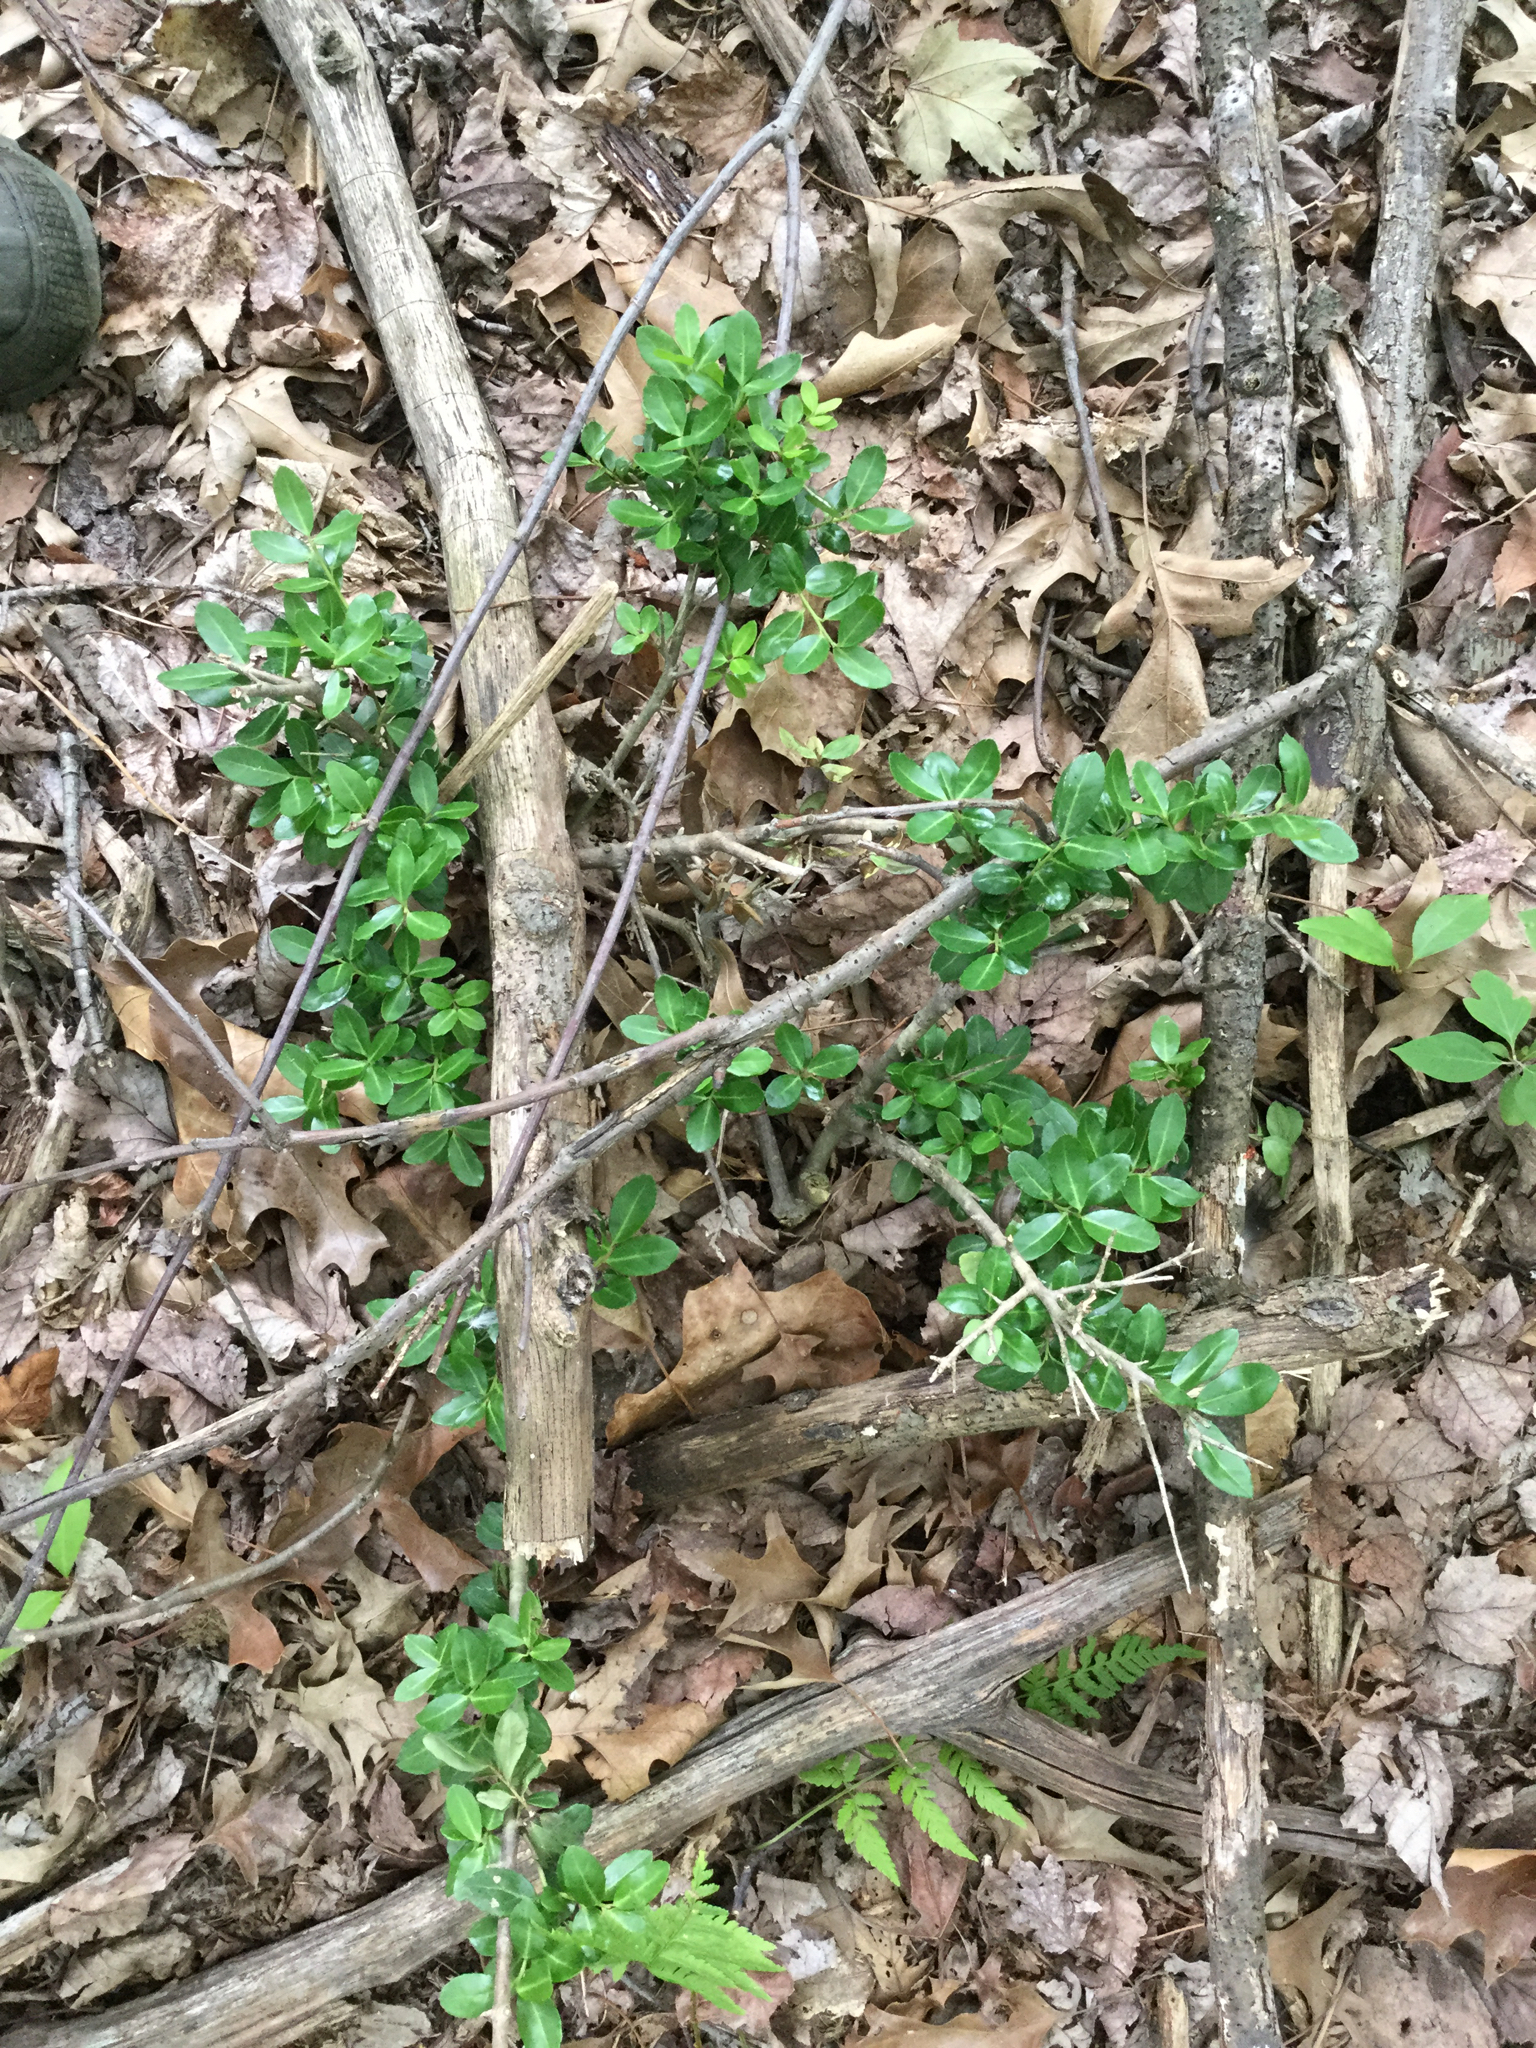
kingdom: Plantae
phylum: Tracheophyta
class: Magnoliopsida
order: Aquifoliales
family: Aquifoliaceae
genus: Ilex
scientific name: Ilex crenata
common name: Japanese holly
